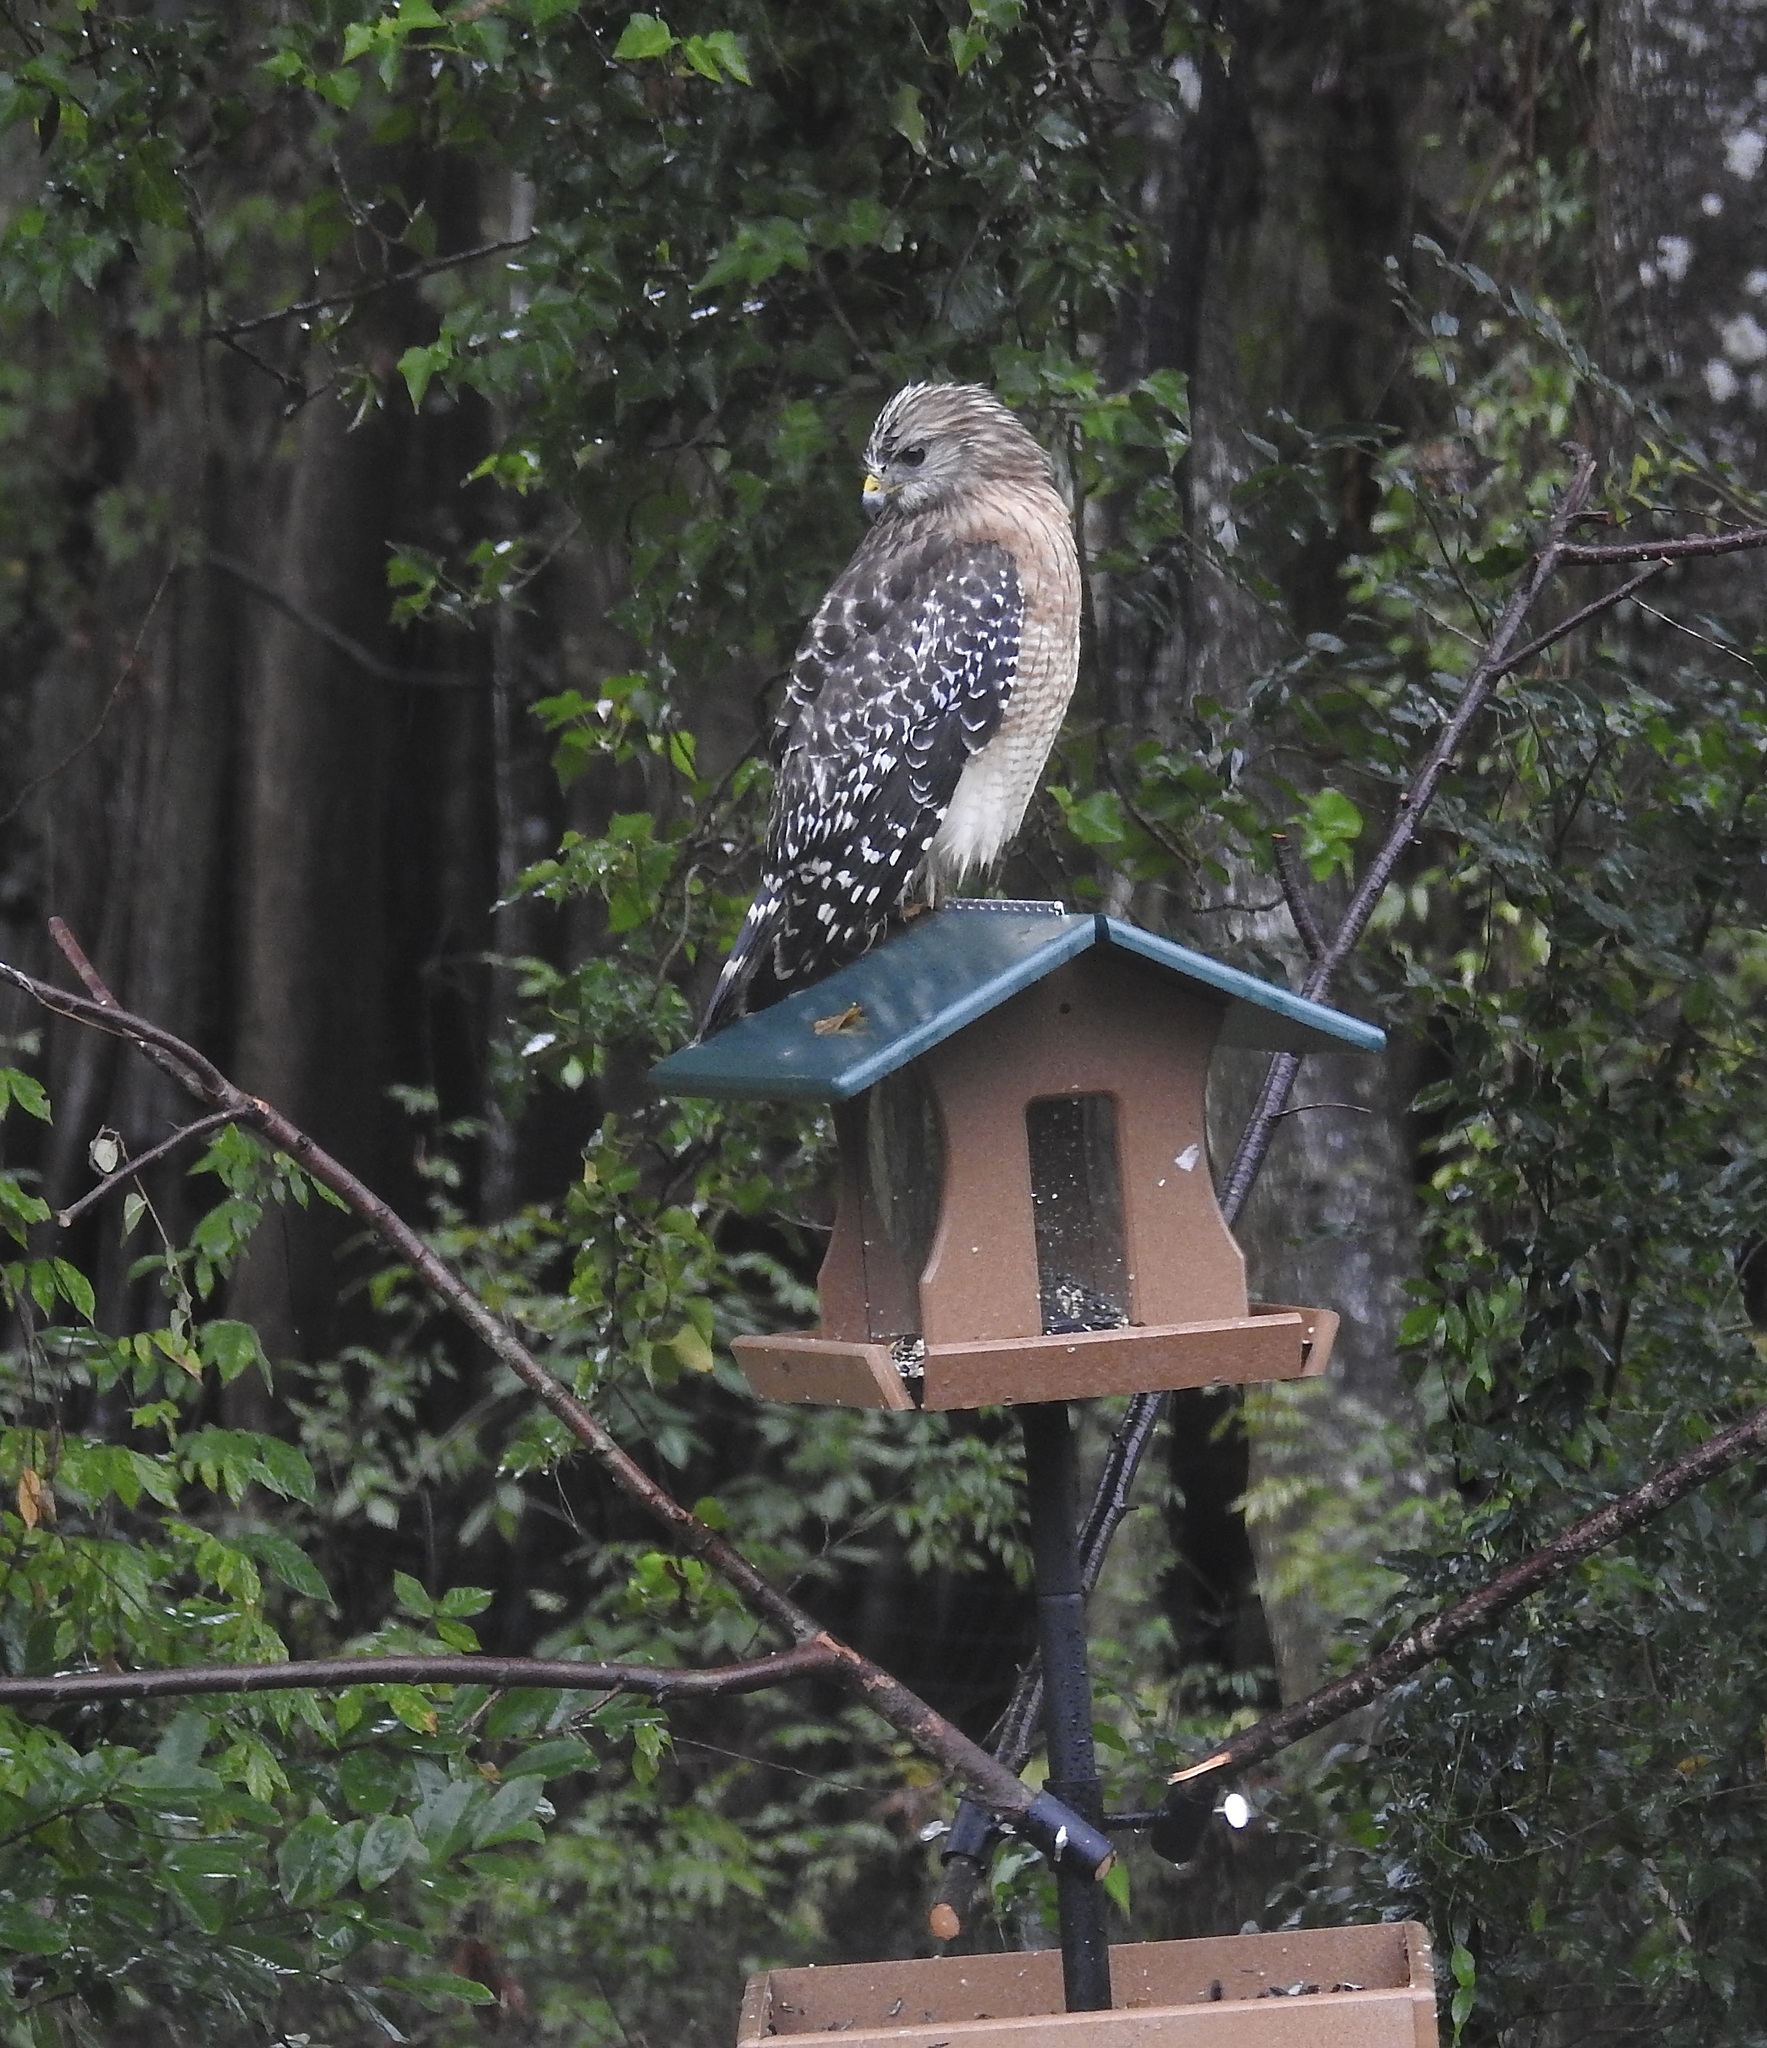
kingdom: Animalia
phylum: Chordata
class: Aves
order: Accipitriformes
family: Accipitridae
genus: Buteo
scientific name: Buteo lineatus
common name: Red-shouldered hawk
